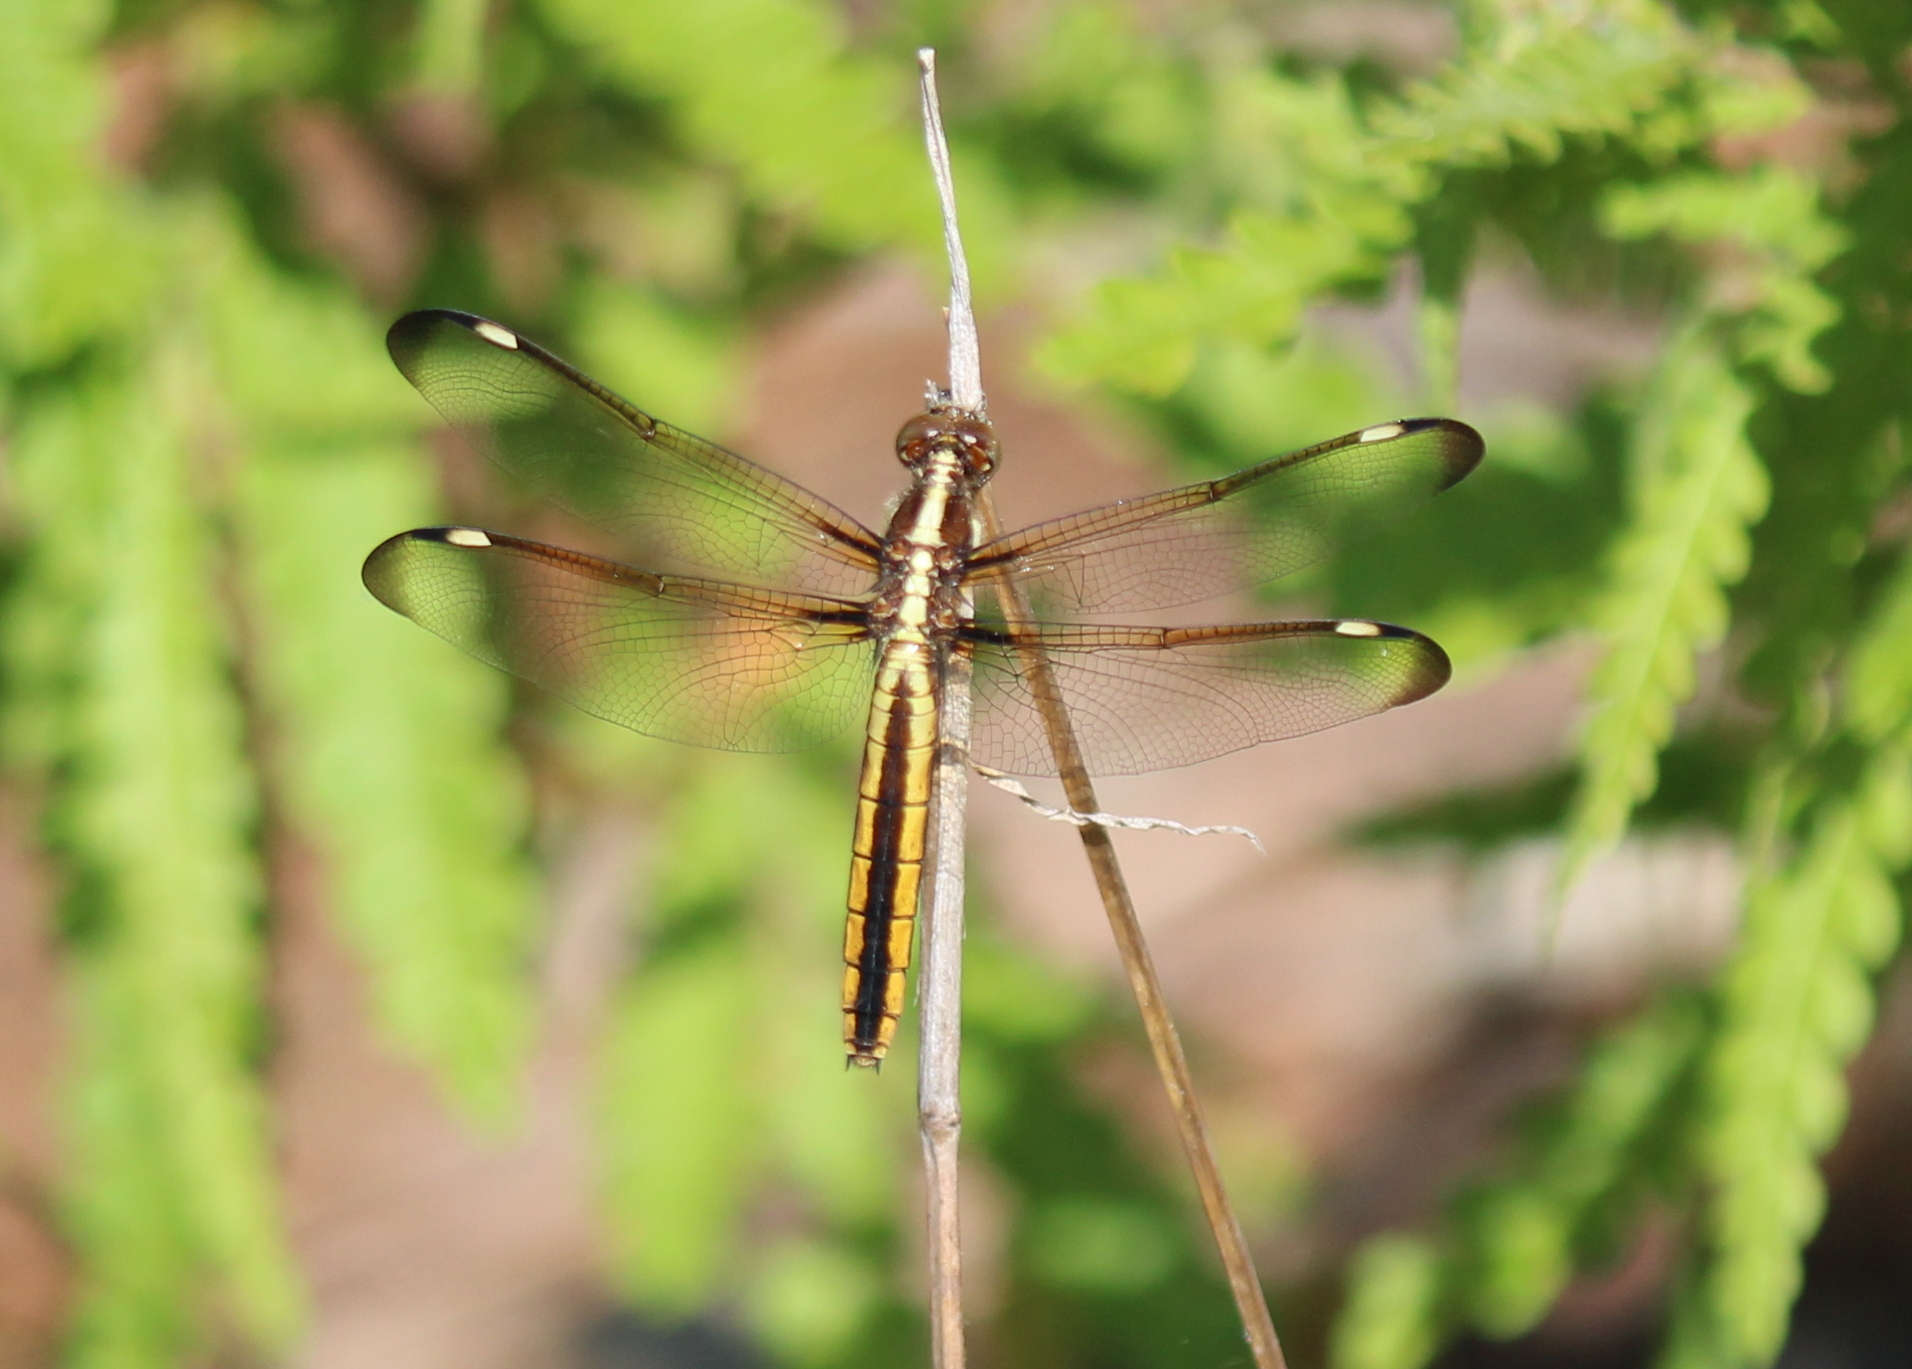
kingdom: Animalia
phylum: Arthropoda
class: Insecta
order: Odonata
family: Libellulidae
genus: Libellula
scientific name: Libellula cyanea
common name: Spangled skimmer
